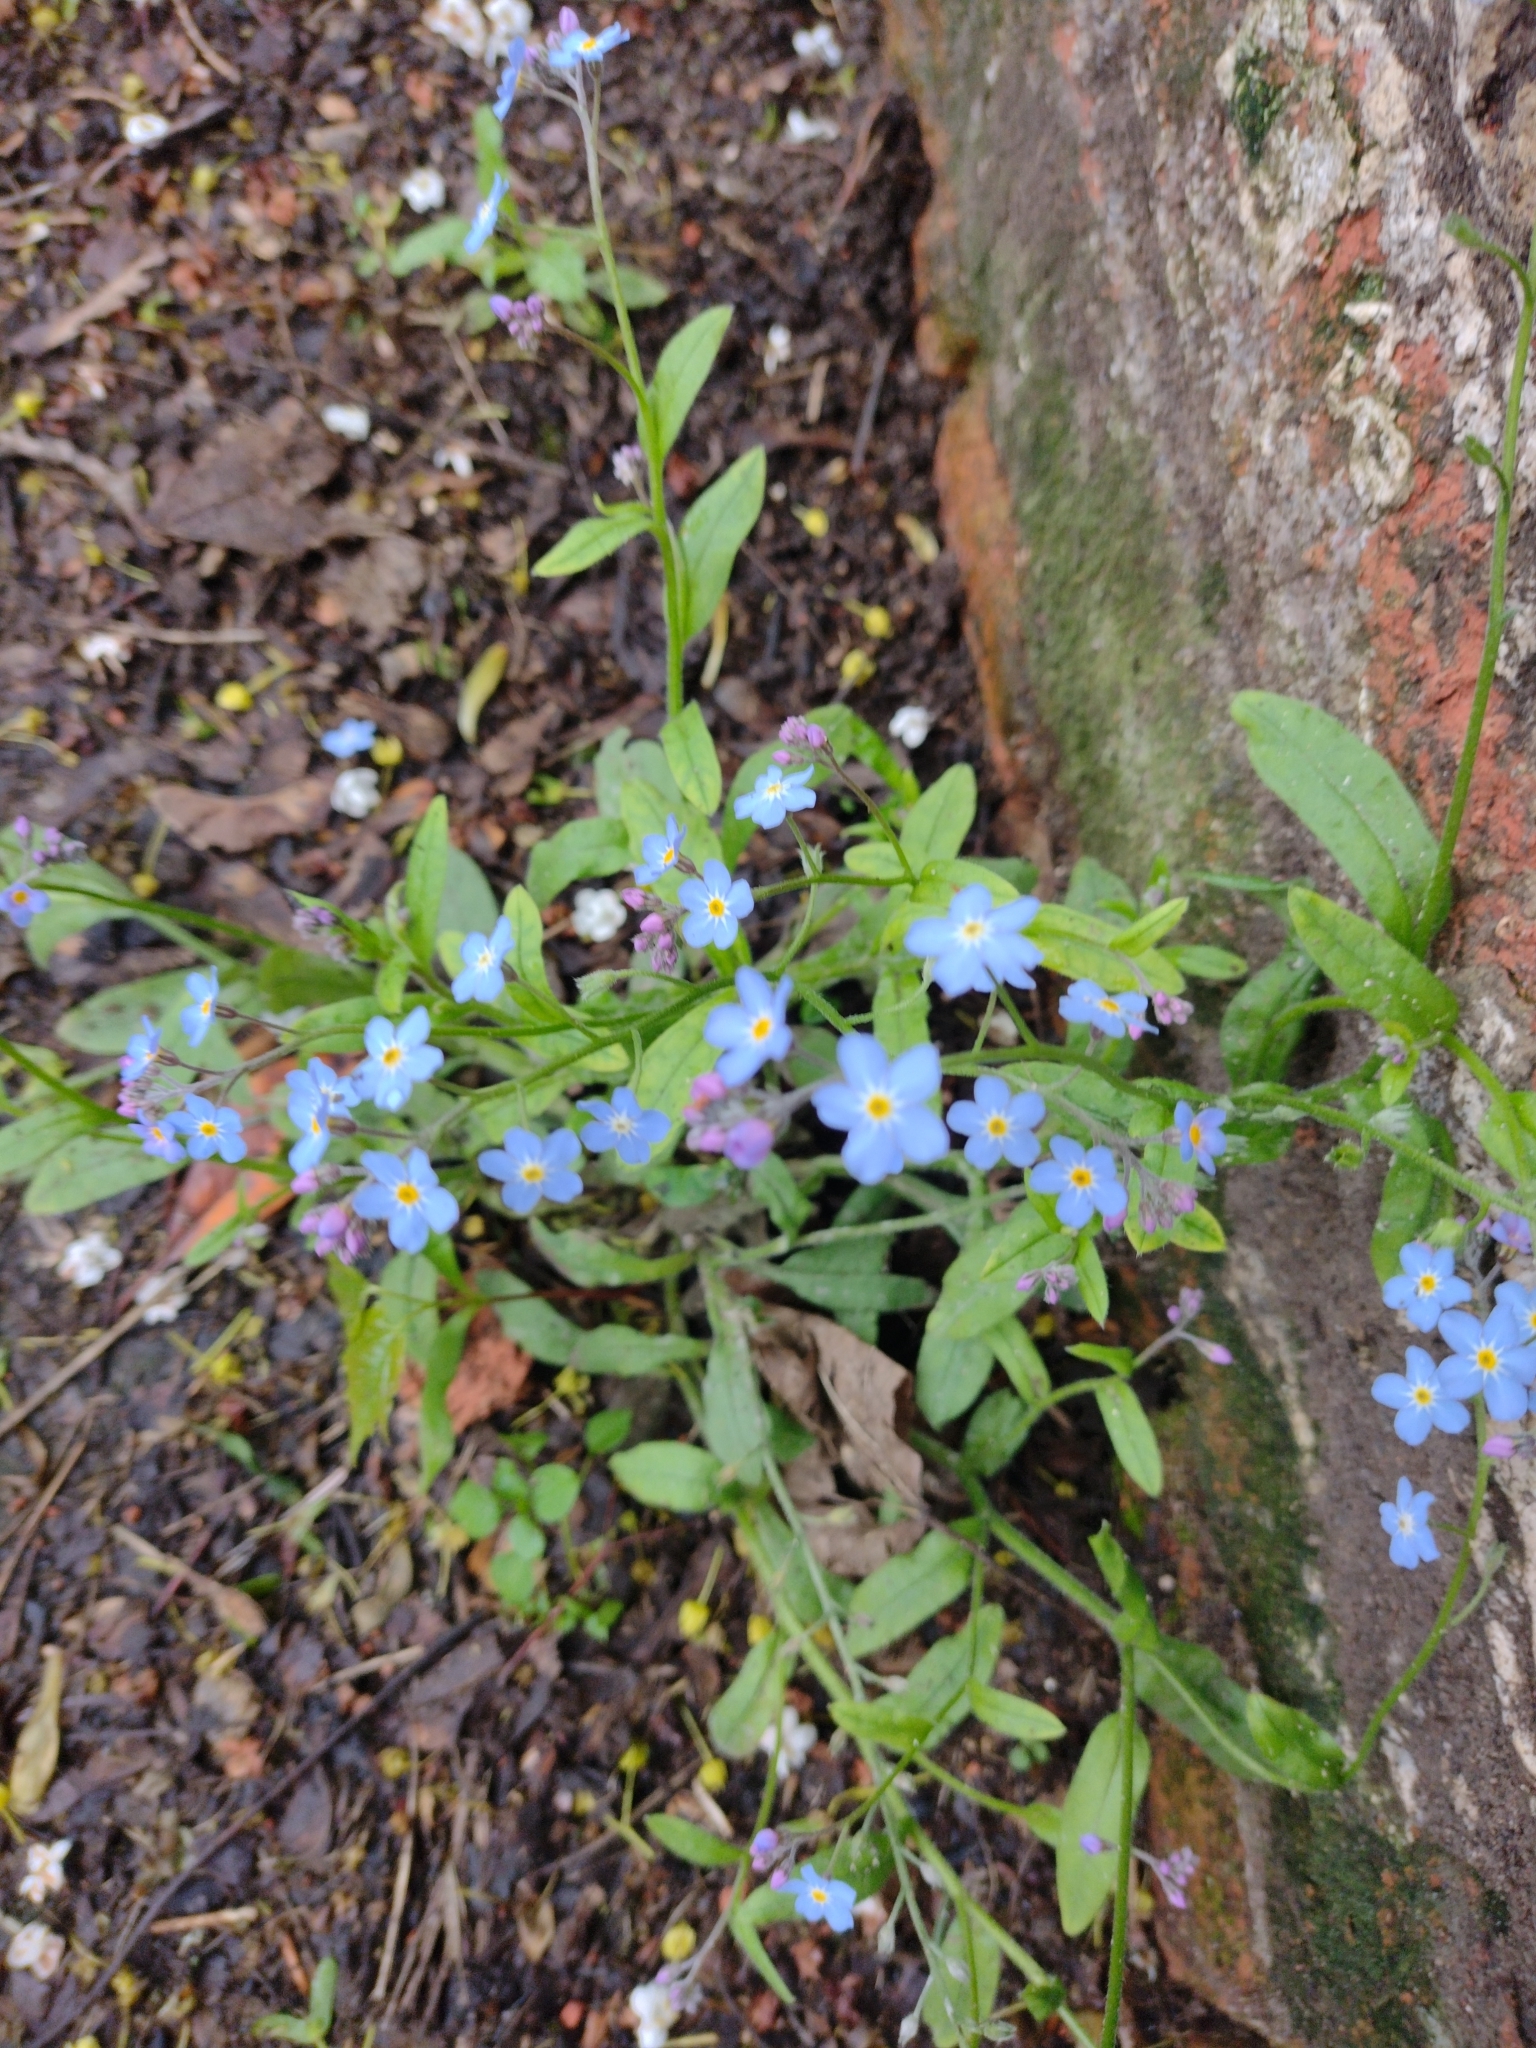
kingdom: Plantae
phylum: Tracheophyta
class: Magnoliopsida
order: Boraginales
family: Boraginaceae
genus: Myosotis
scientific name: Myosotis sylvatica
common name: Wood forget-me-not
